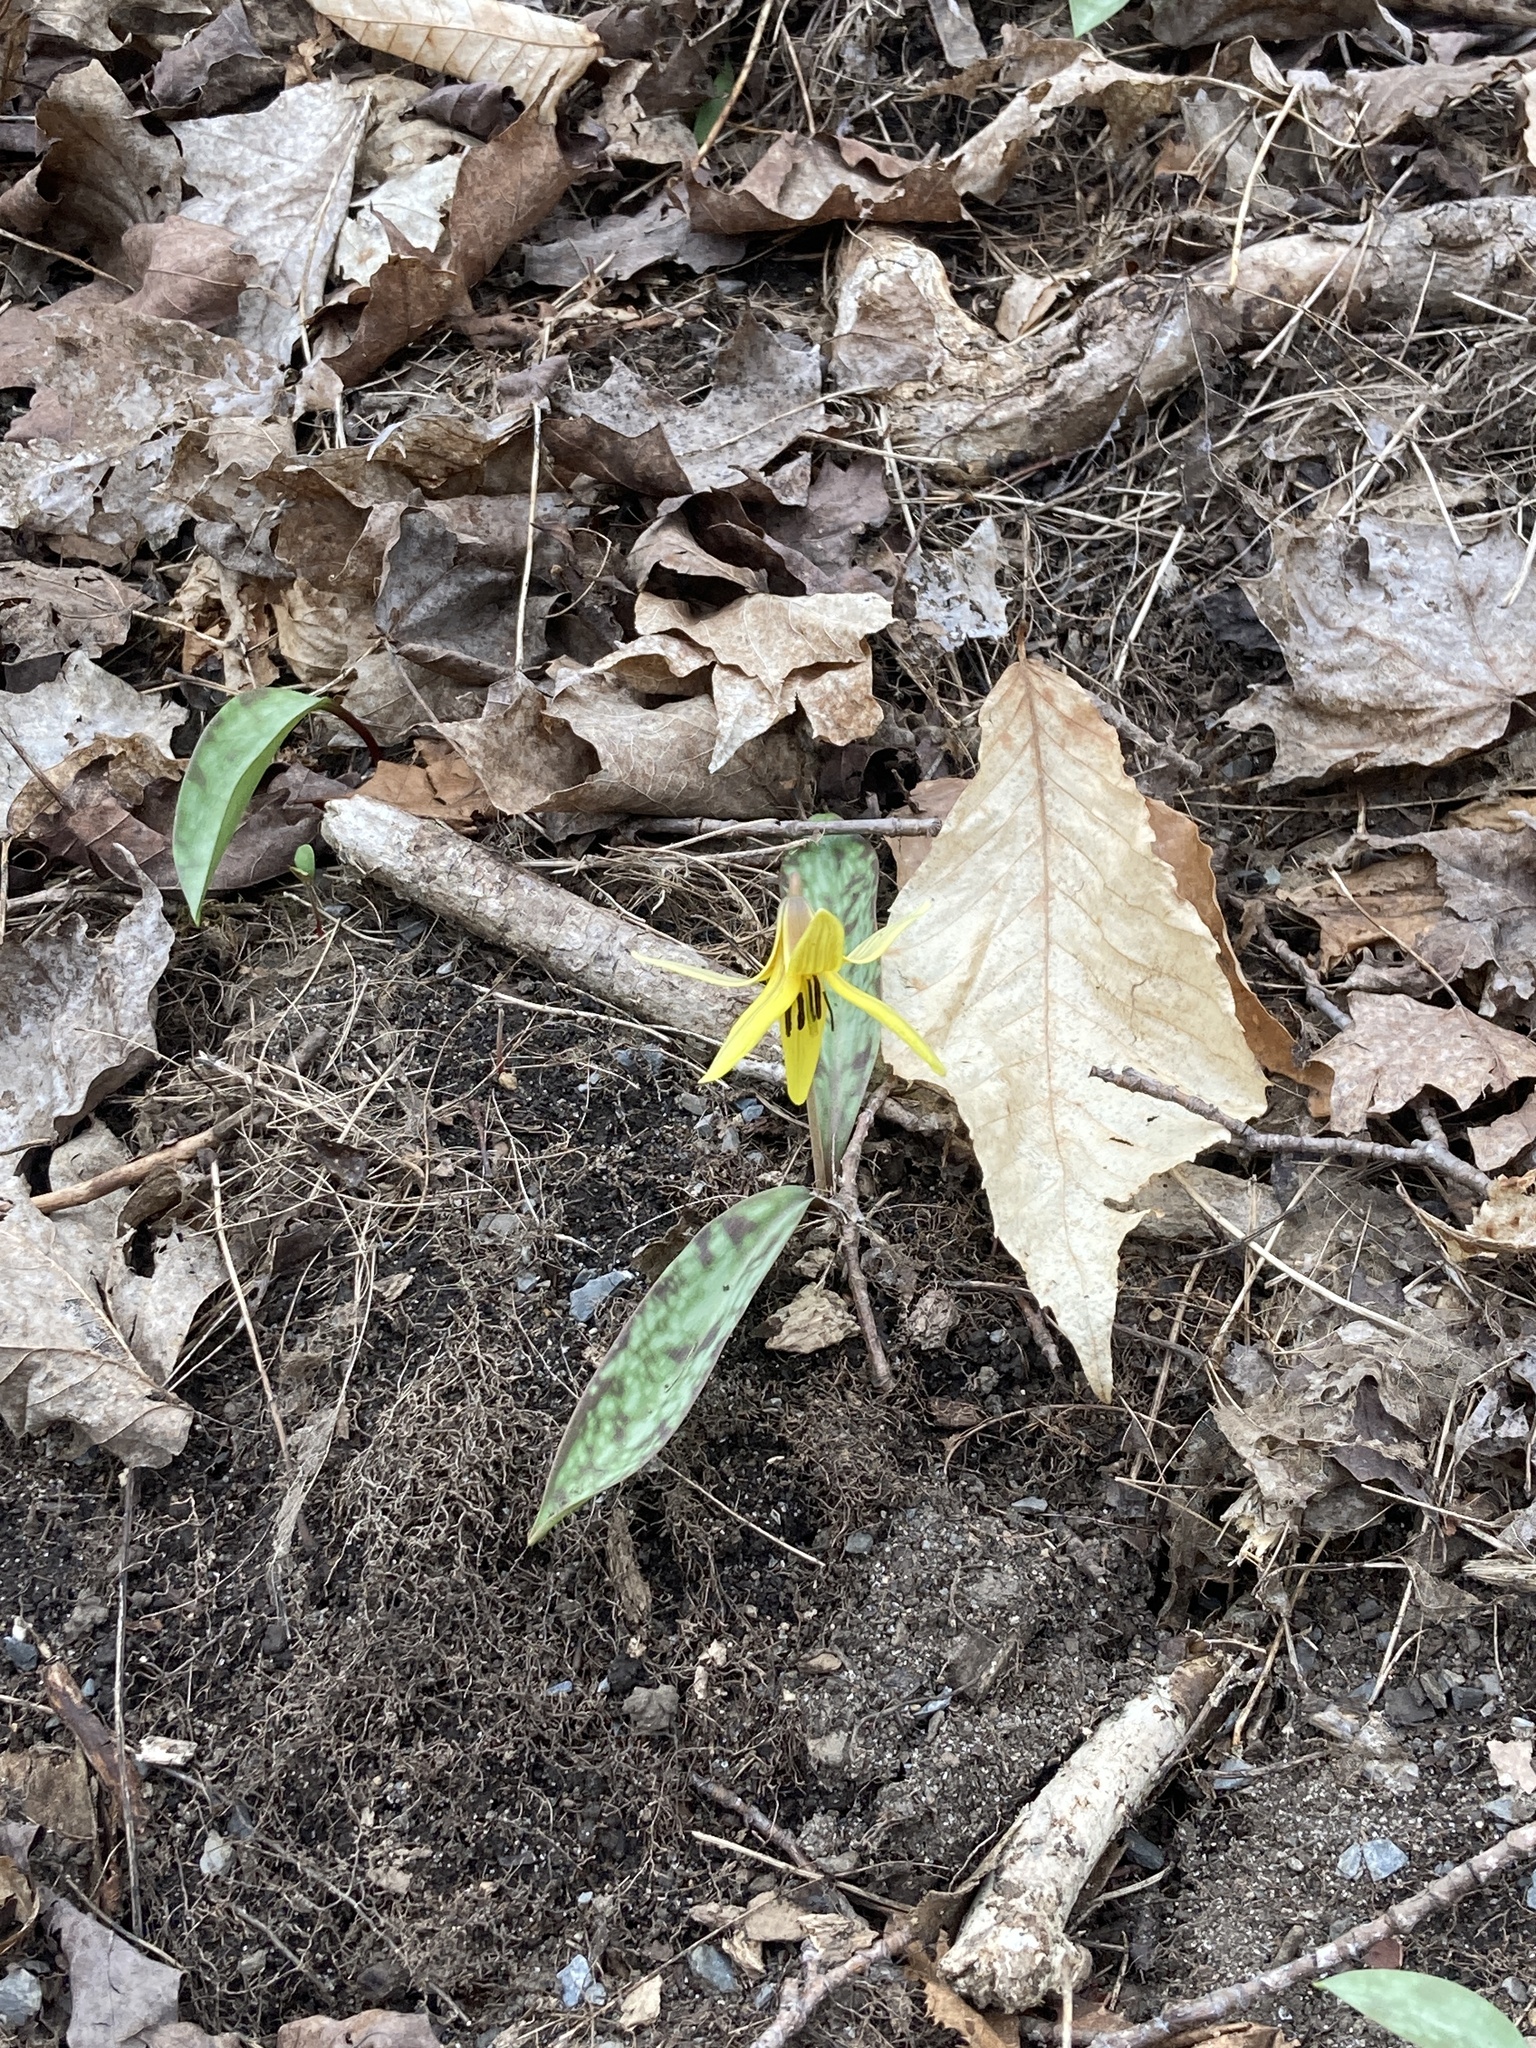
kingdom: Plantae
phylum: Tracheophyta
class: Liliopsida
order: Liliales
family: Liliaceae
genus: Erythronium
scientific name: Erythronium americanum
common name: Yellow adder's-tongue
